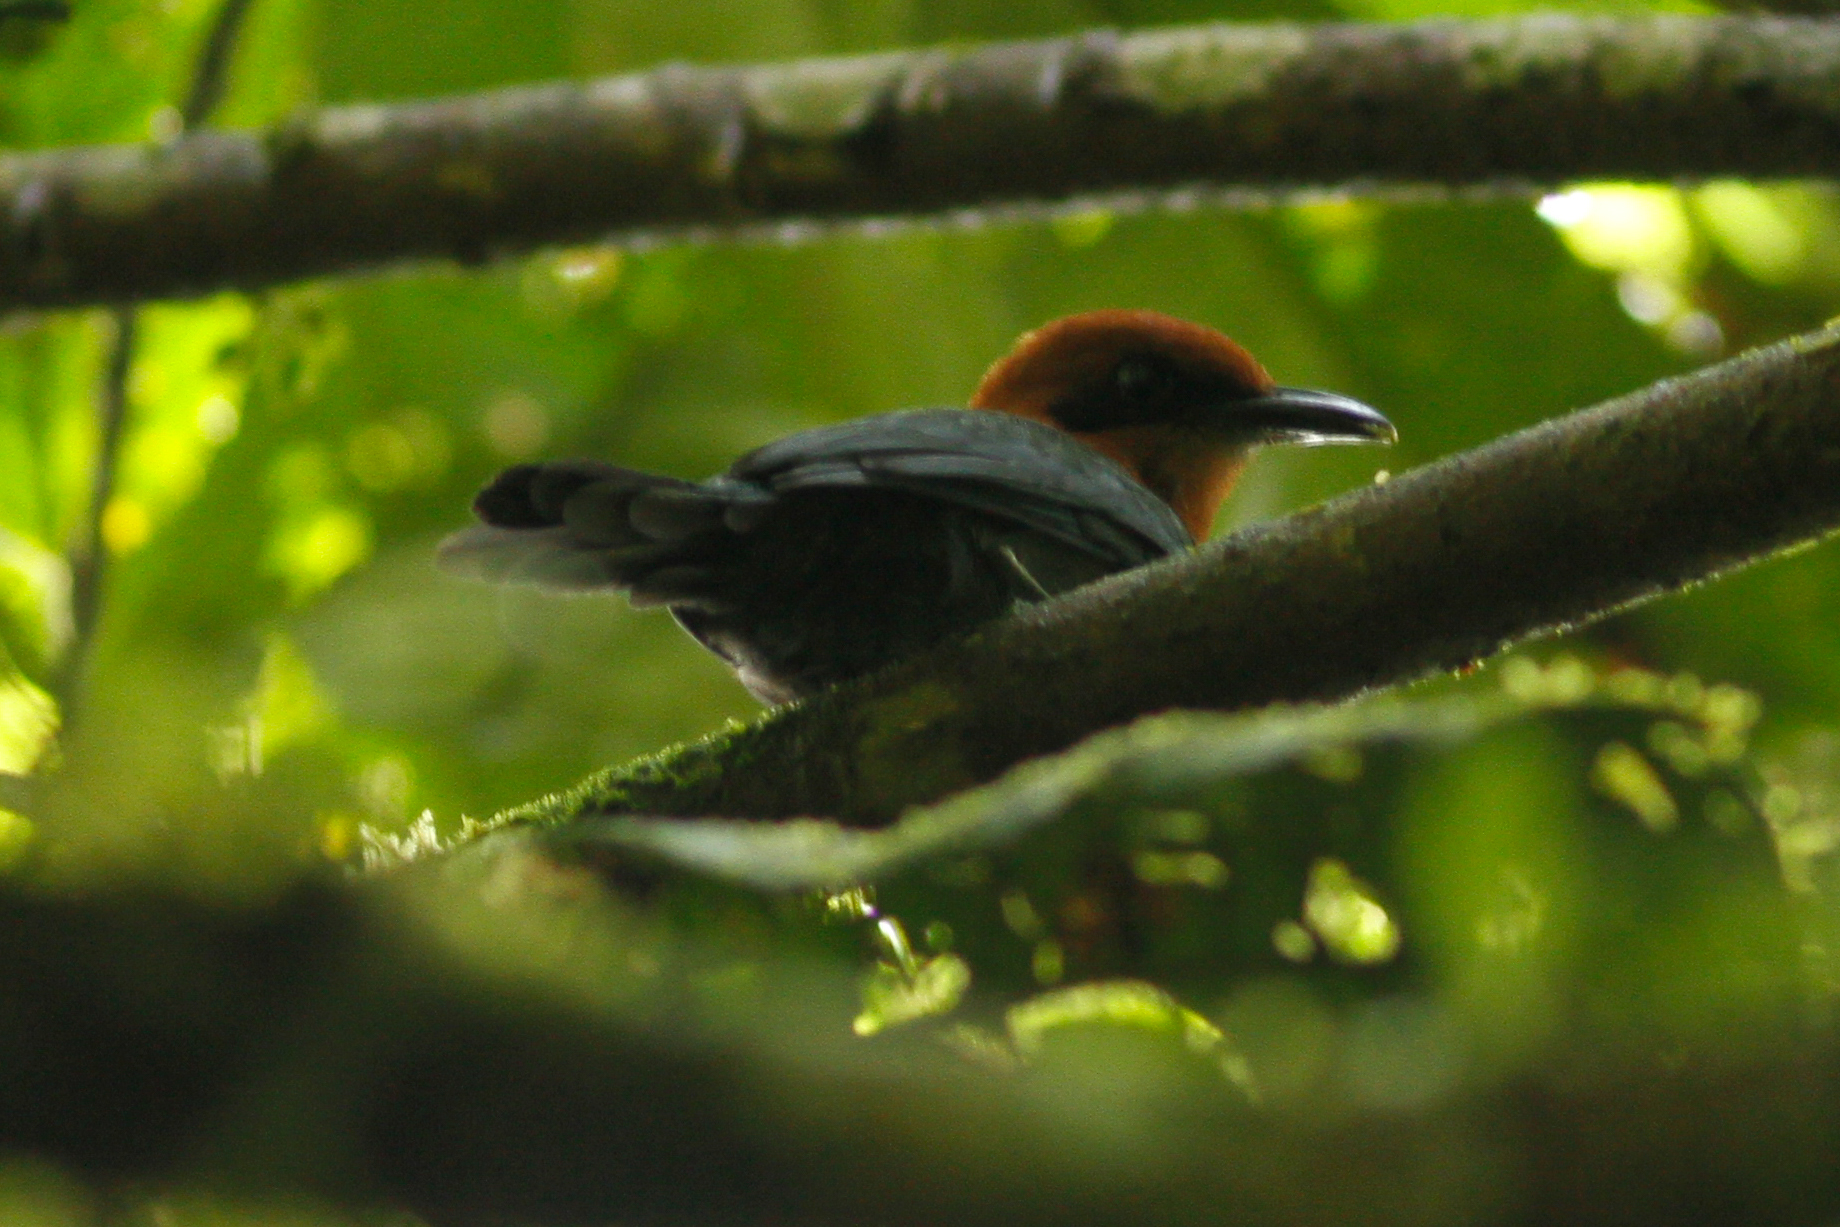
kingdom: Animalia
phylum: Chordata
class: Aves
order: Coraciiformes
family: Momotidae
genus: Electron
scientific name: Electron platyrhynchum
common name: Broad-billed motmot
